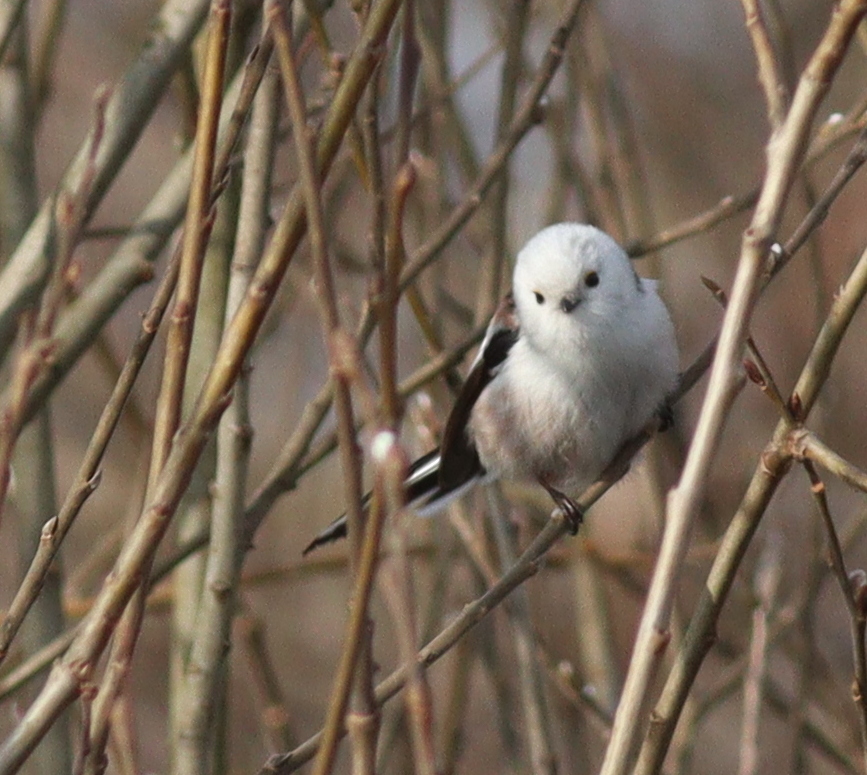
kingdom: Animalia
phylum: Chordata
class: Aves
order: Passeriformes
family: Aegithalidae
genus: Aegithalos
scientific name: Aegithalos caudatus
